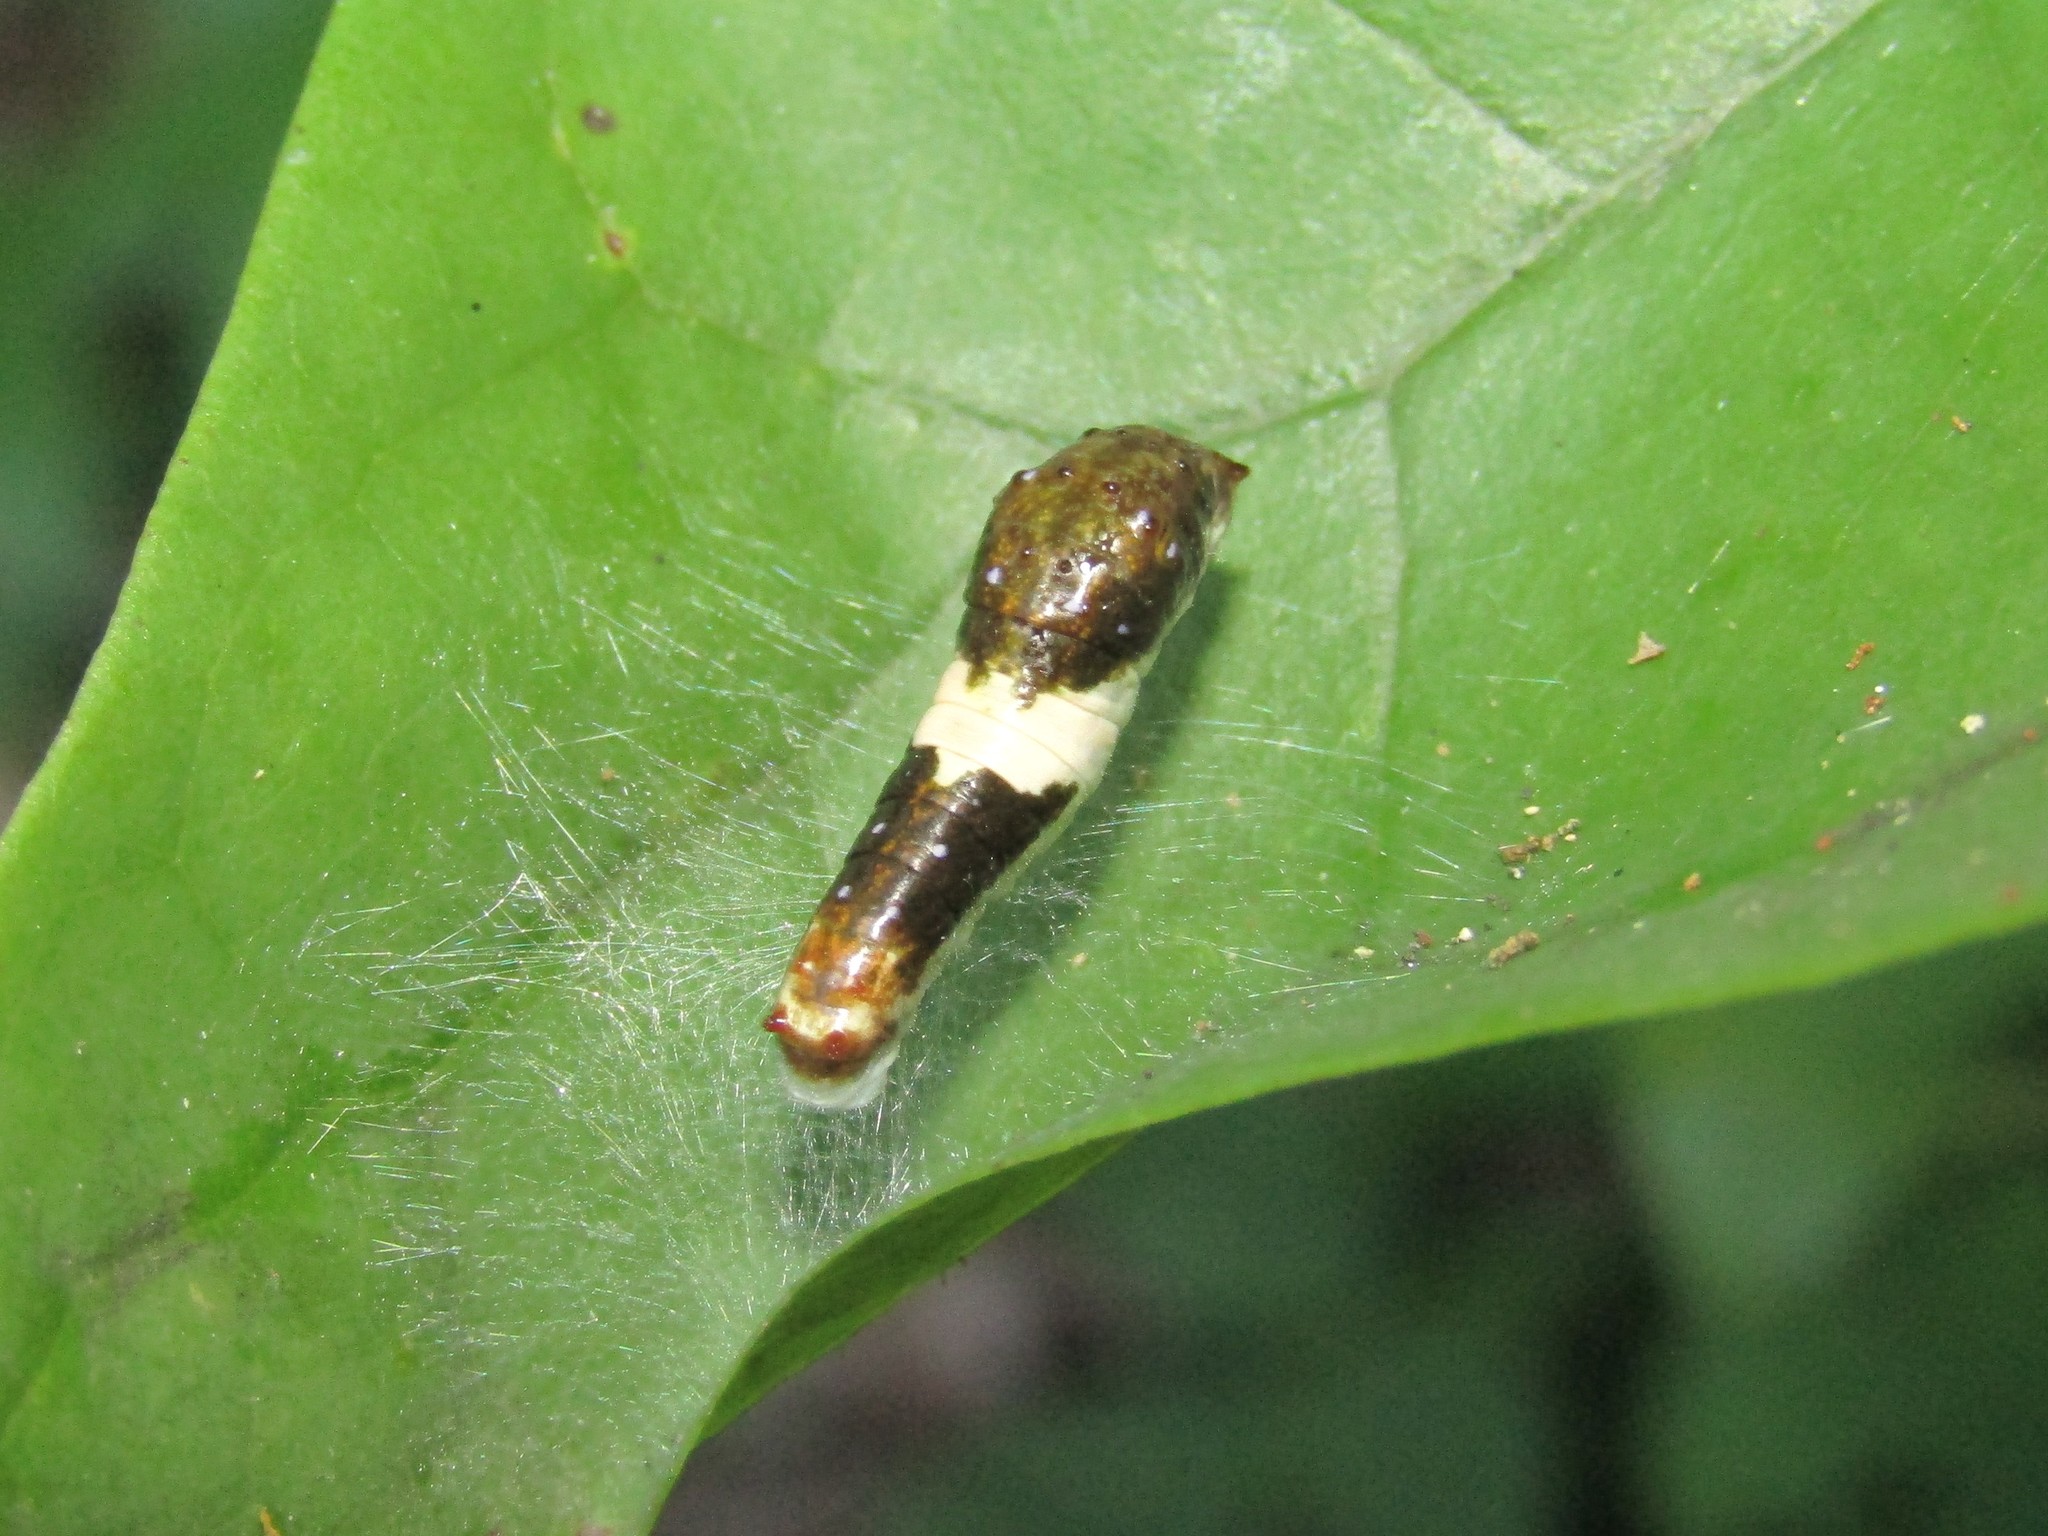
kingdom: Animalia
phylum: Arthropoda
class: Insecta
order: Lepidoptera
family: Papilionidae
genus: Papilio
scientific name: Papilio glaucus
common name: Tiger swallowtail
